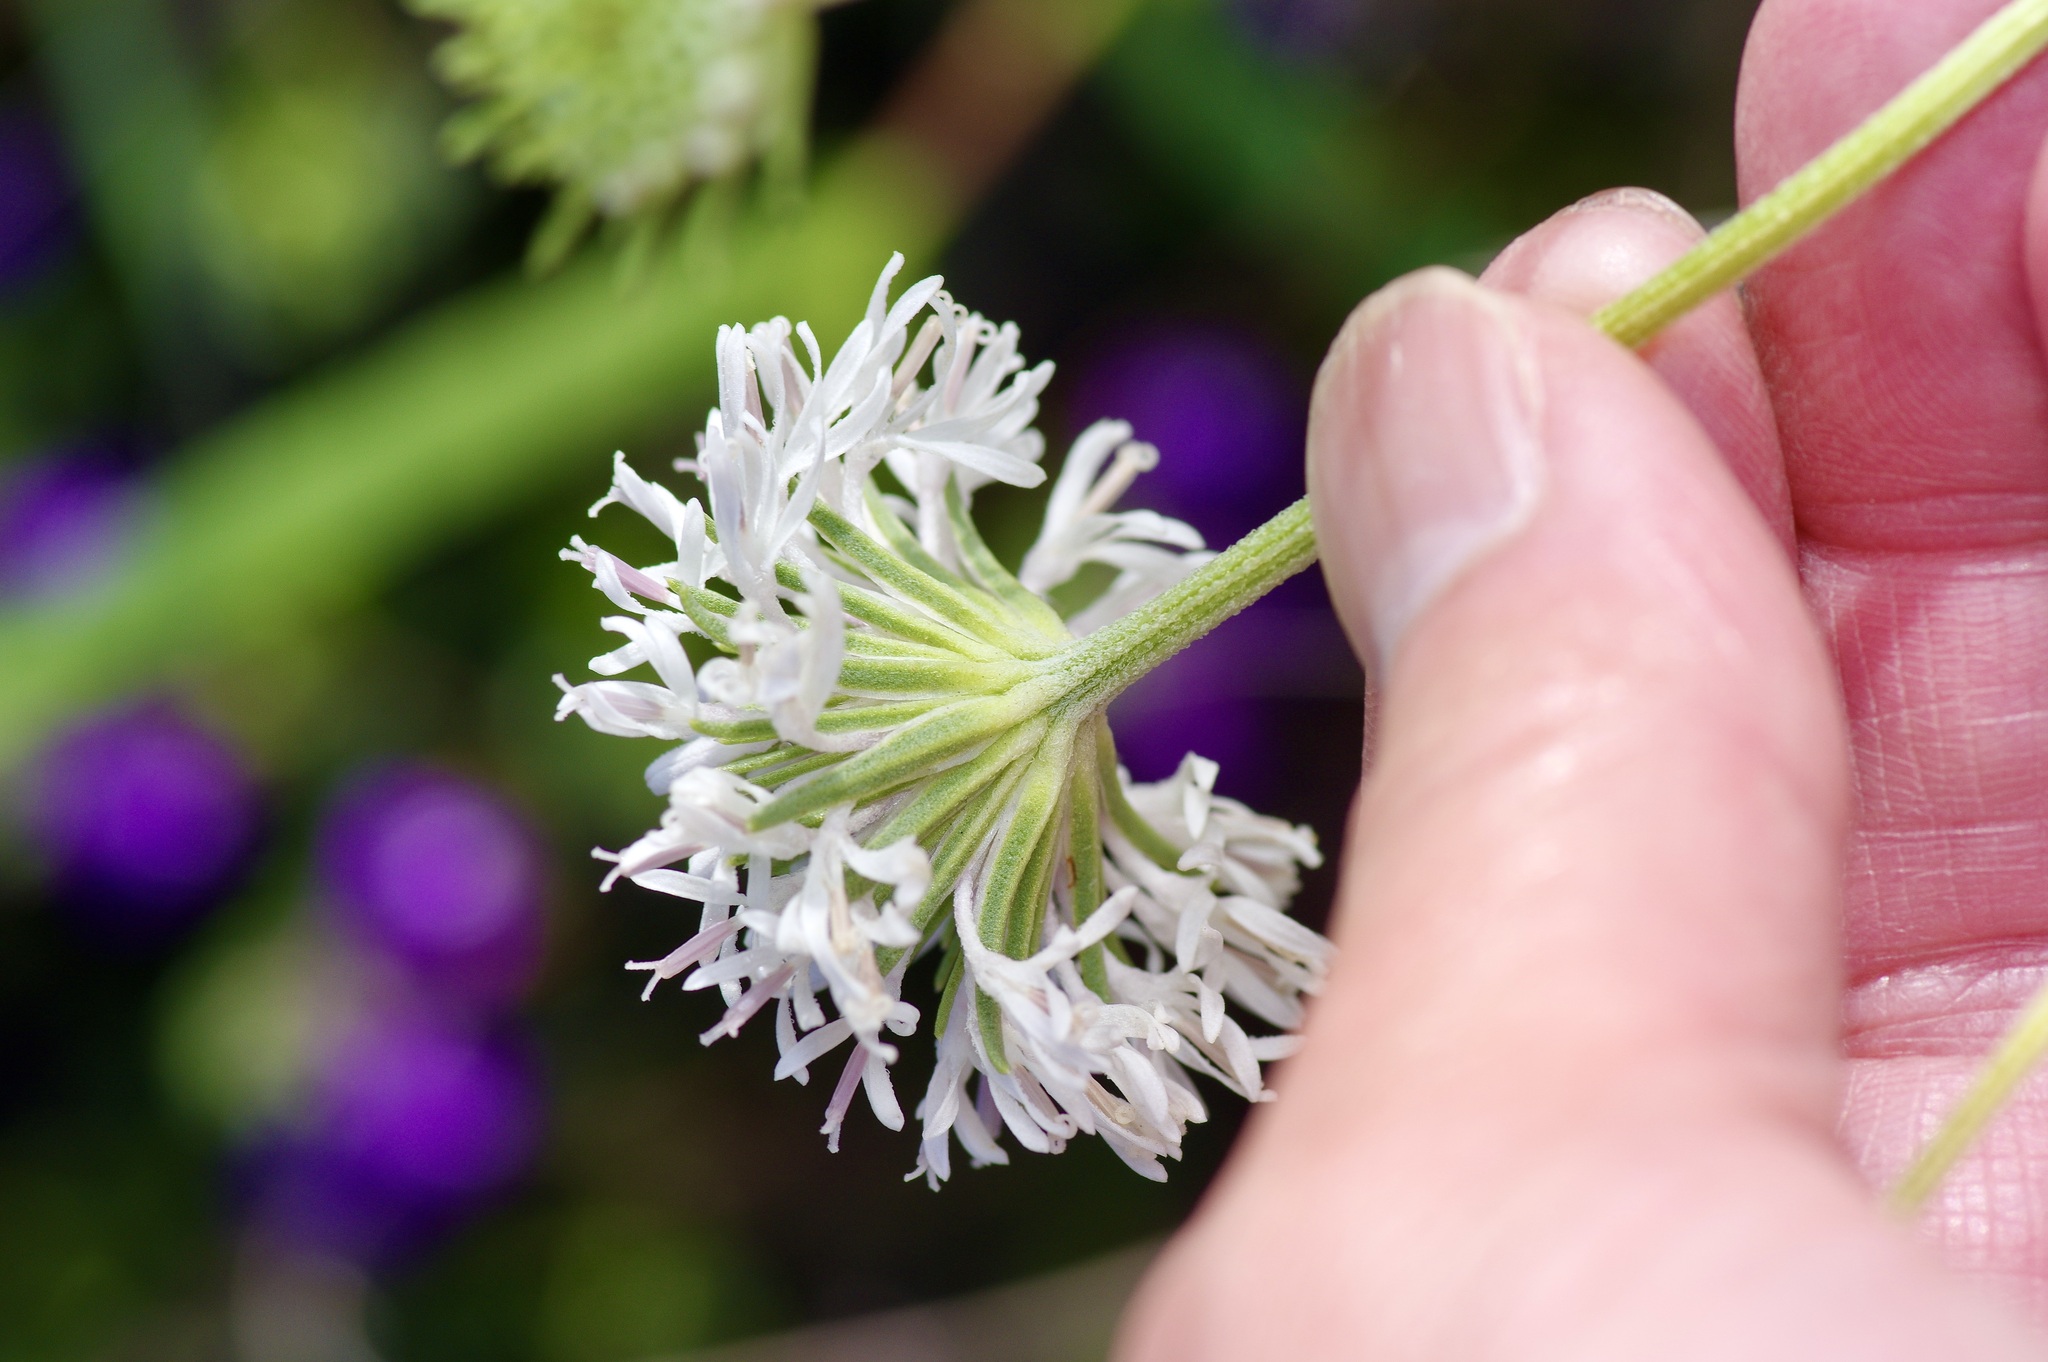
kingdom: Plantae
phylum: Tracheophyta
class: Magnoliopsida
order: Asterales
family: Asteraceae
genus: Marshallia
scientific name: Marshallia caespitosa
